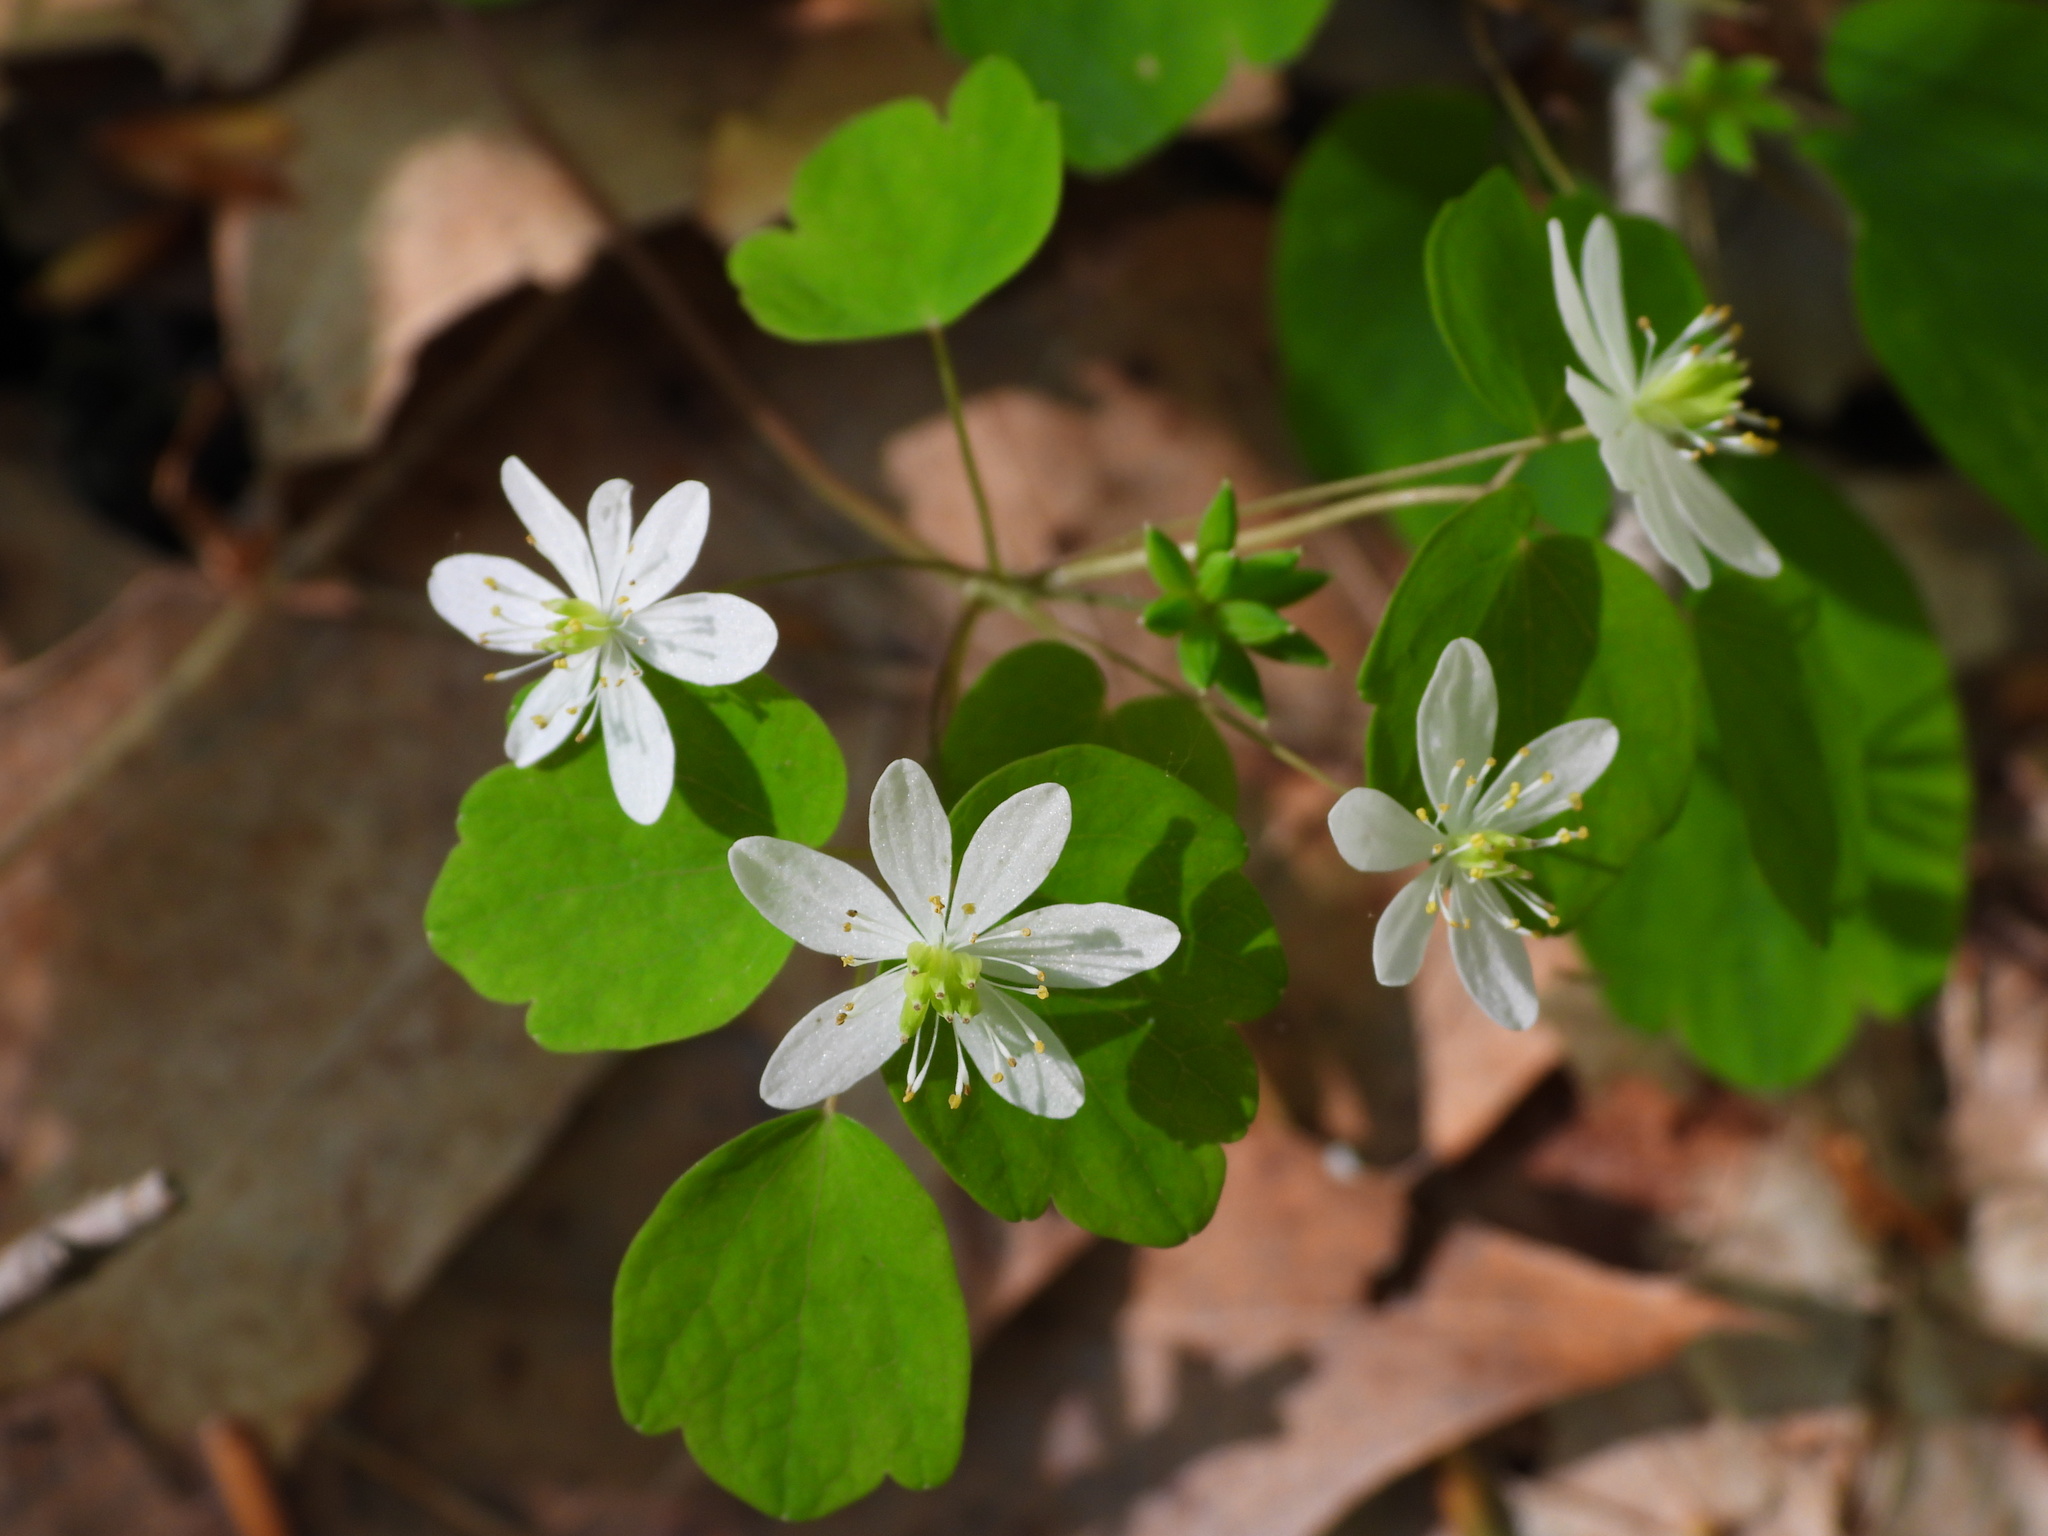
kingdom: Plantae
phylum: Tracheophyta
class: Magnoliopsida
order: Ranunculales
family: Ranunculaceae
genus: Thalictrum
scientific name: Thalictrum thalictroides
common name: Rue-anemone
